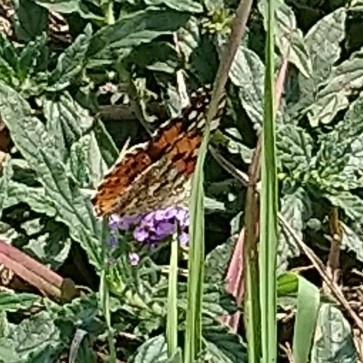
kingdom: Animalia
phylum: Arthropoda
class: Insecta
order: Lepidoptera
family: Nymphalidae
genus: Vanessa
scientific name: Vanessa cardui
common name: Painted lady
